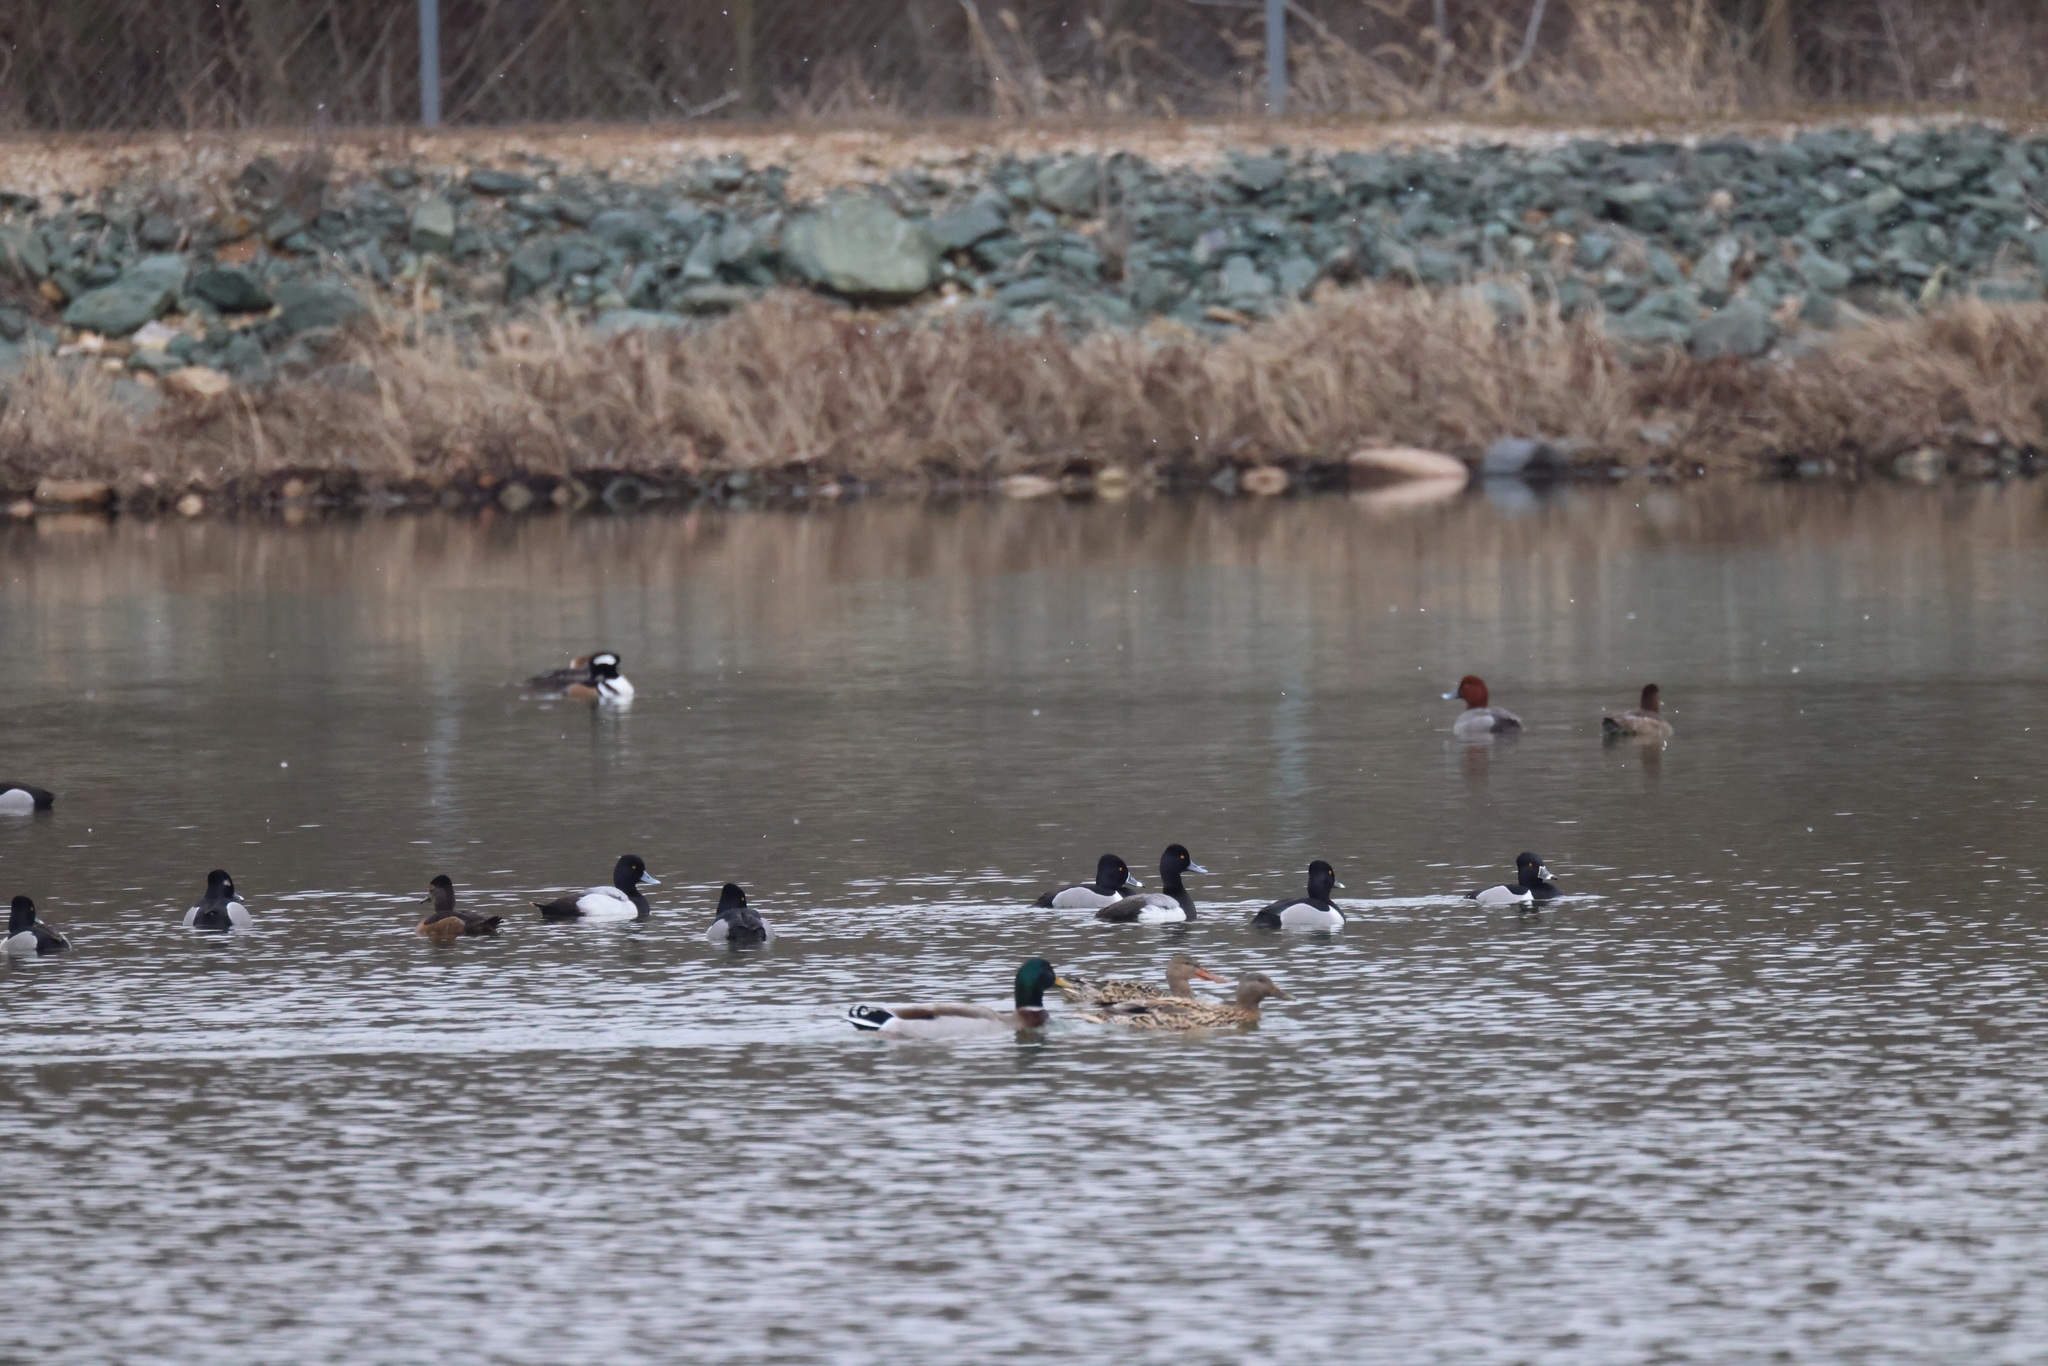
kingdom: Animalia
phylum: Chordata
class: Aves
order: Anseriformes
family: Anatidae
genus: Aythya
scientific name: Aythya affinis
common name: Lesser scaup
